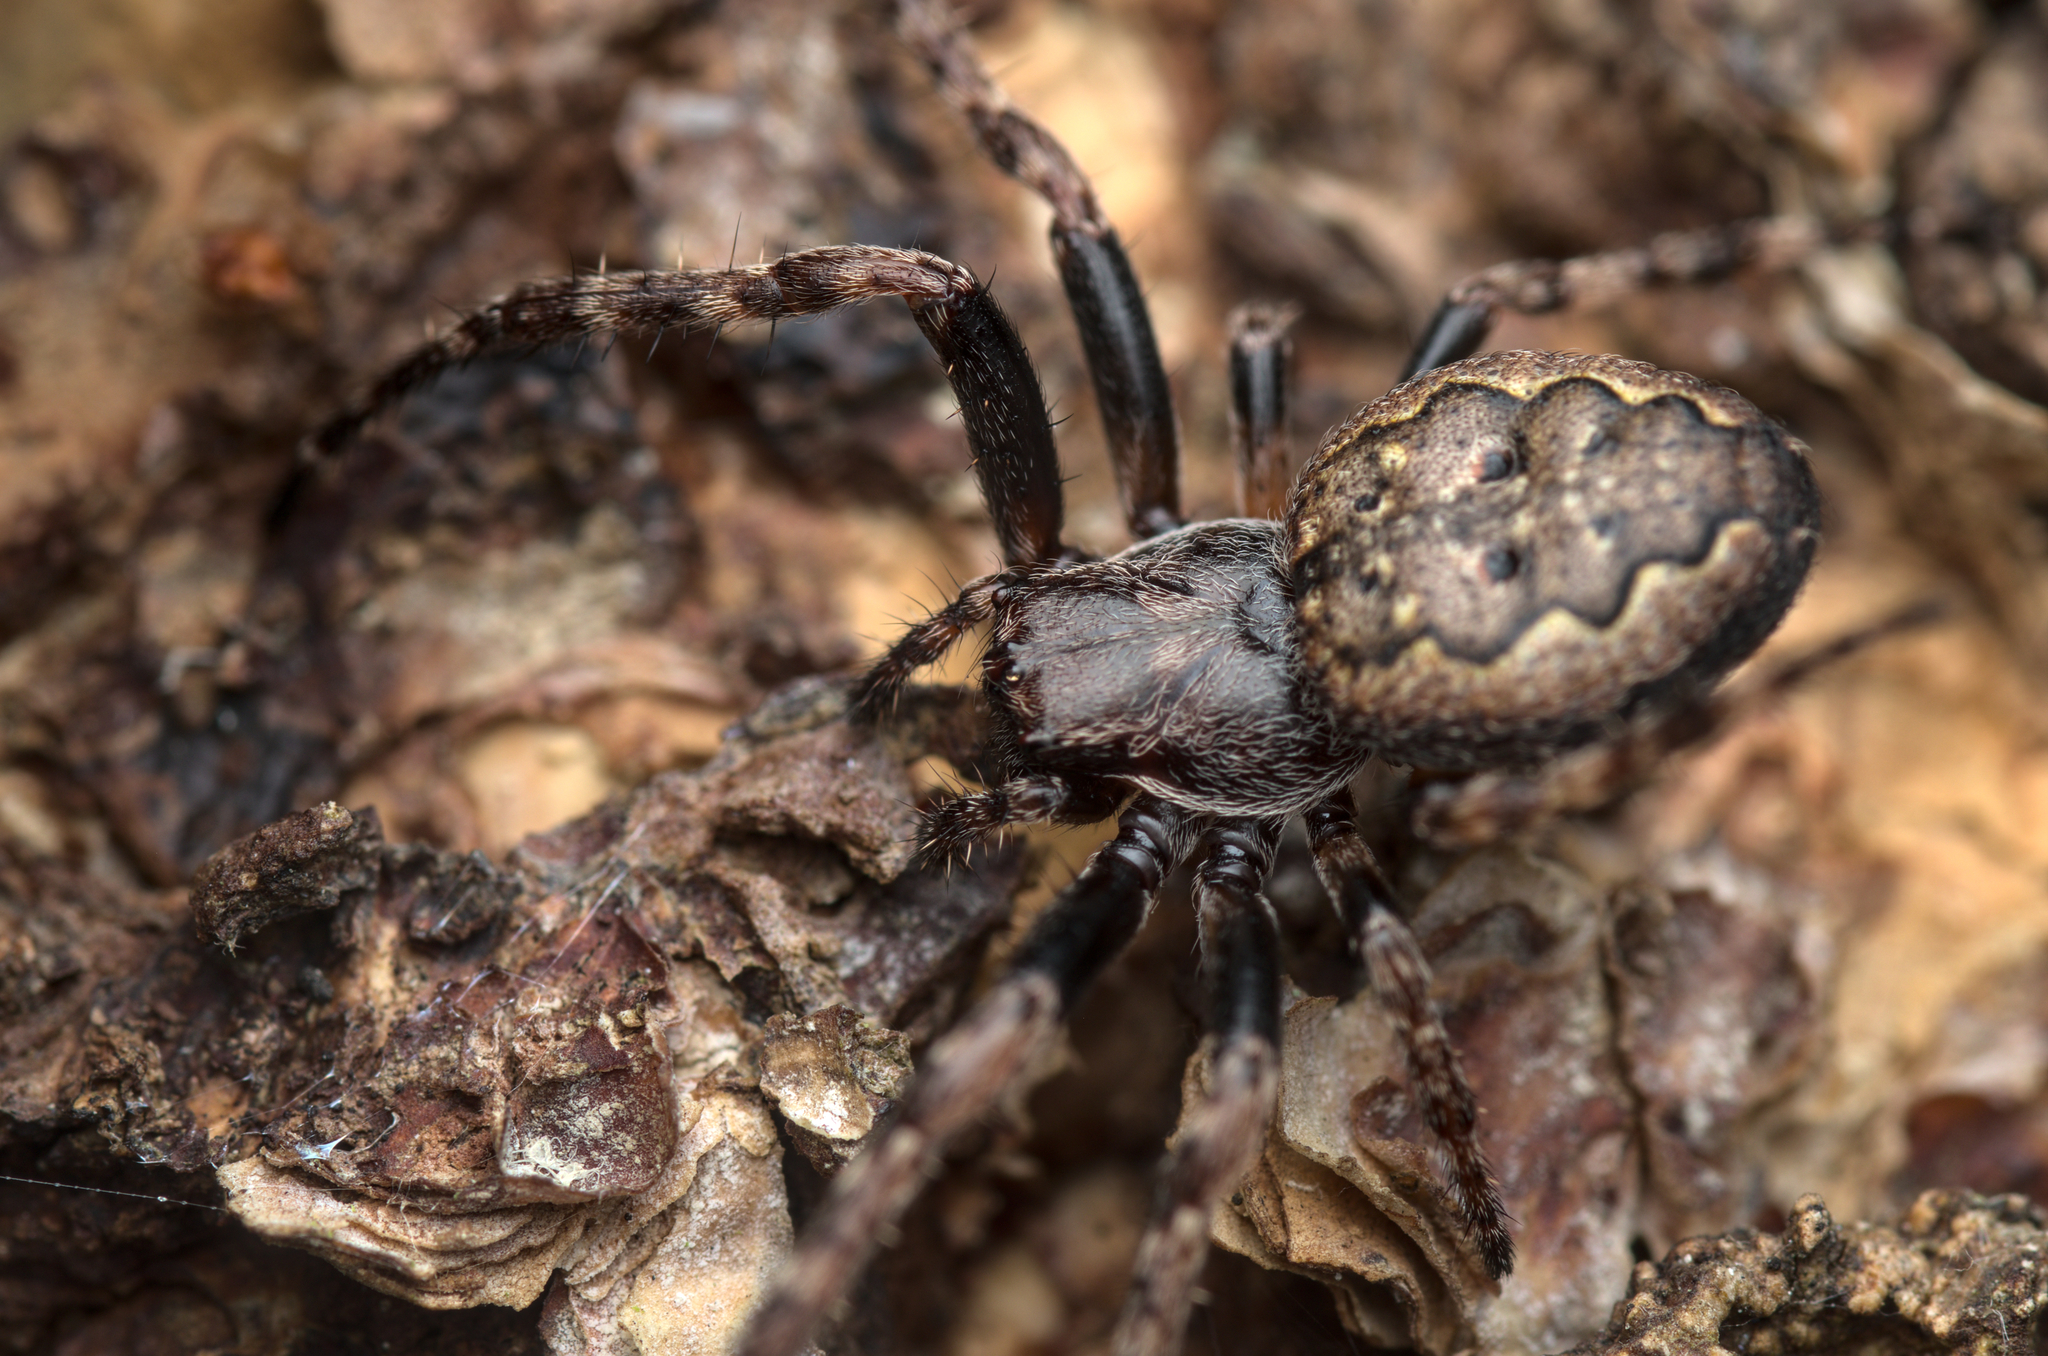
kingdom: Animalia
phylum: Arthropoda
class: Arachnida
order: Araneae
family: Araneidae
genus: Nuctenea
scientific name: Nuctenea umbratica
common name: Toad spider
